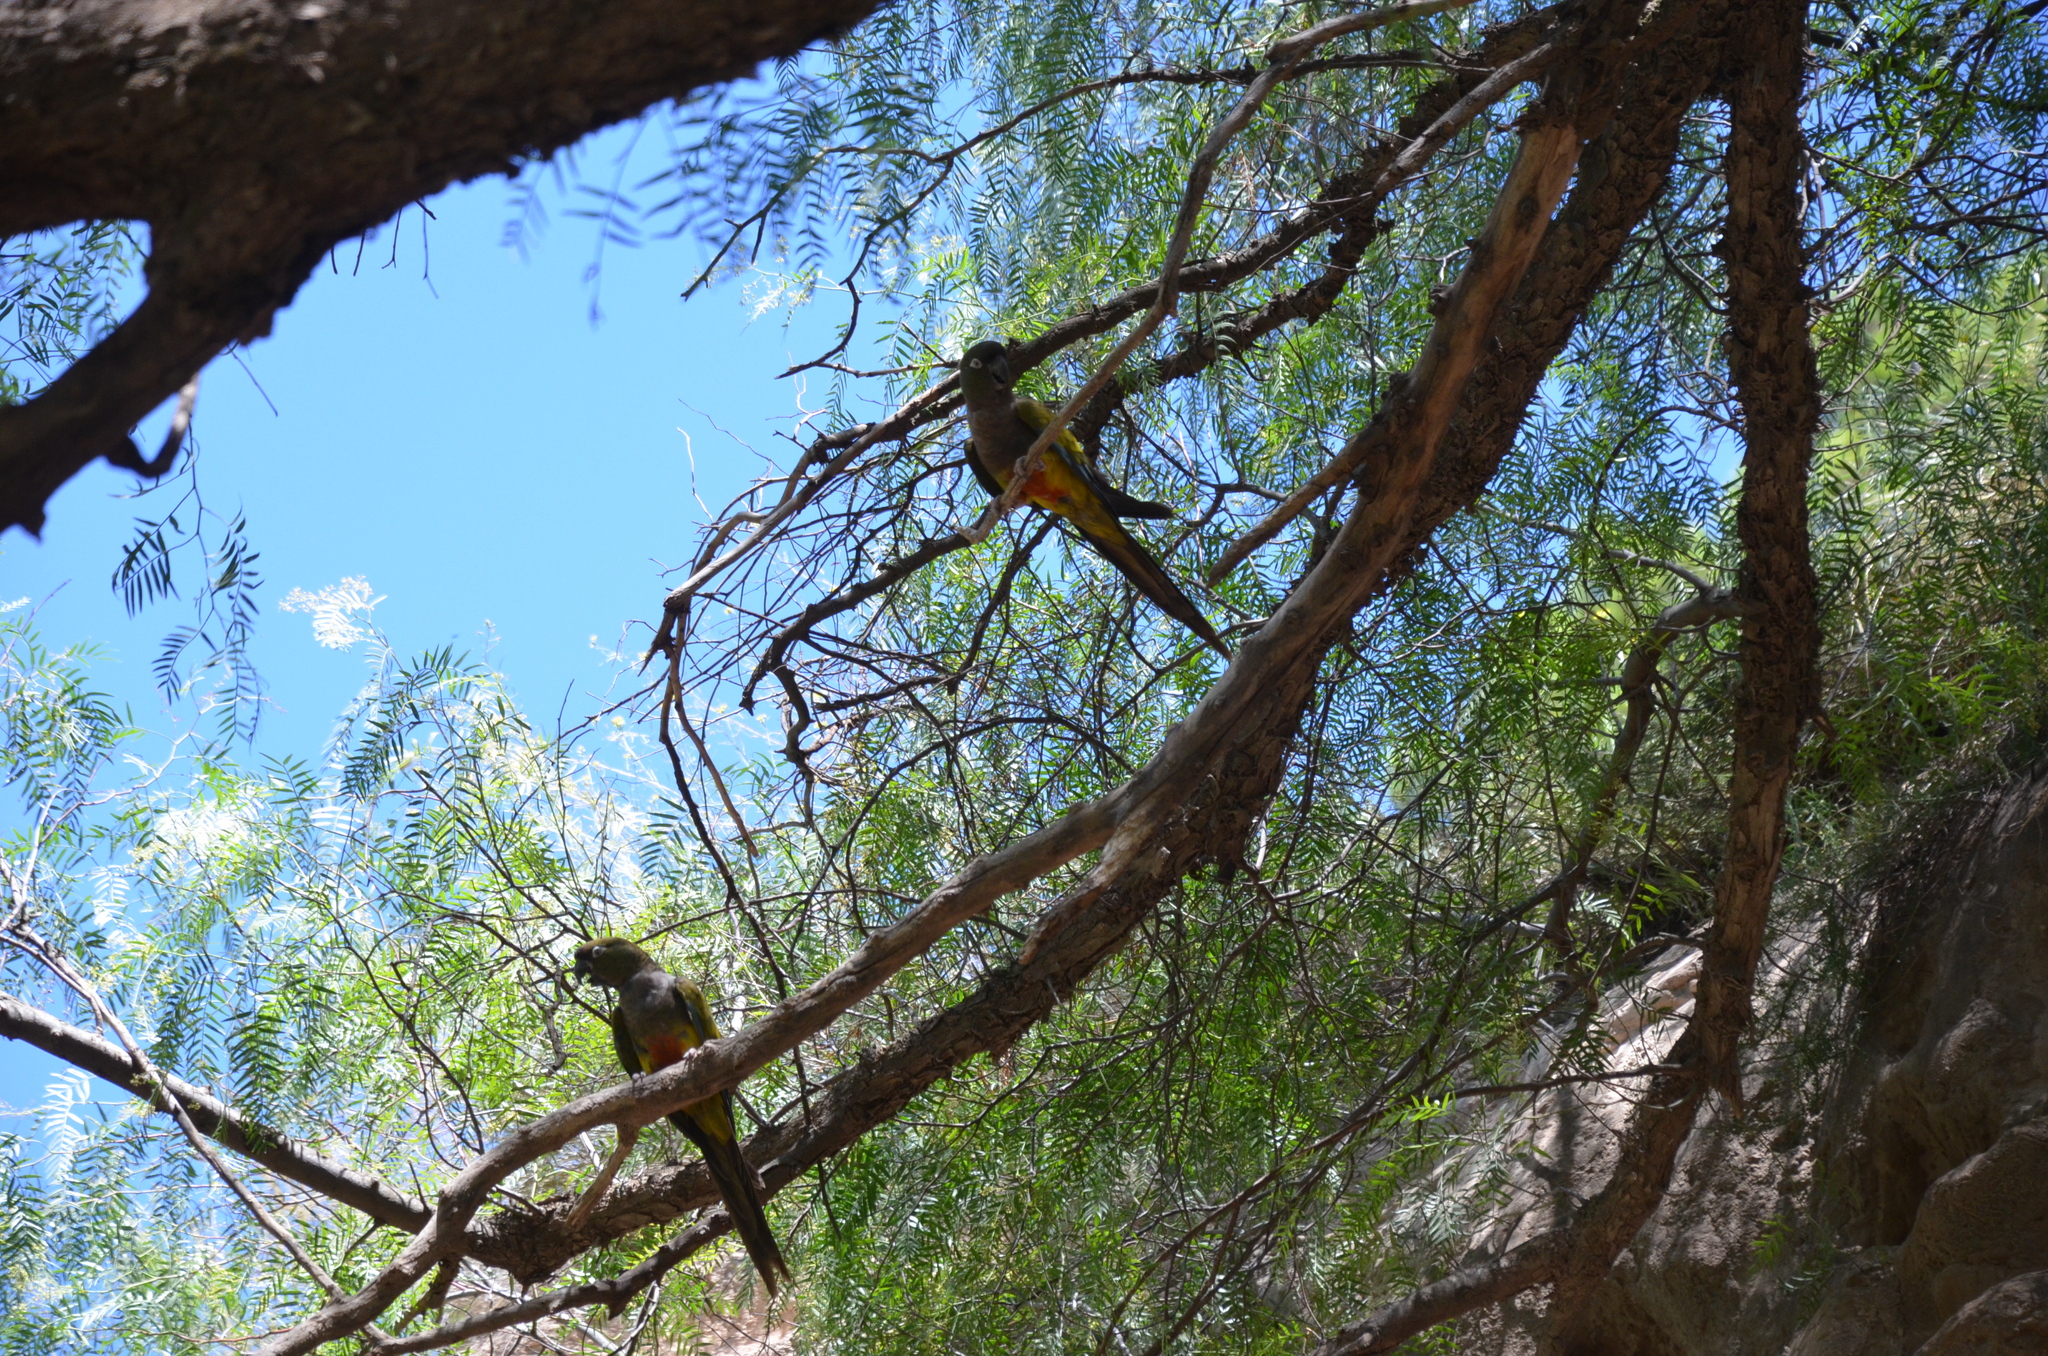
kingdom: Plantae
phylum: Tracheophyta
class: Magnoliopsida
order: Sapindales
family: Anacardiaceae
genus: Schinus
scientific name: Schinus areira
